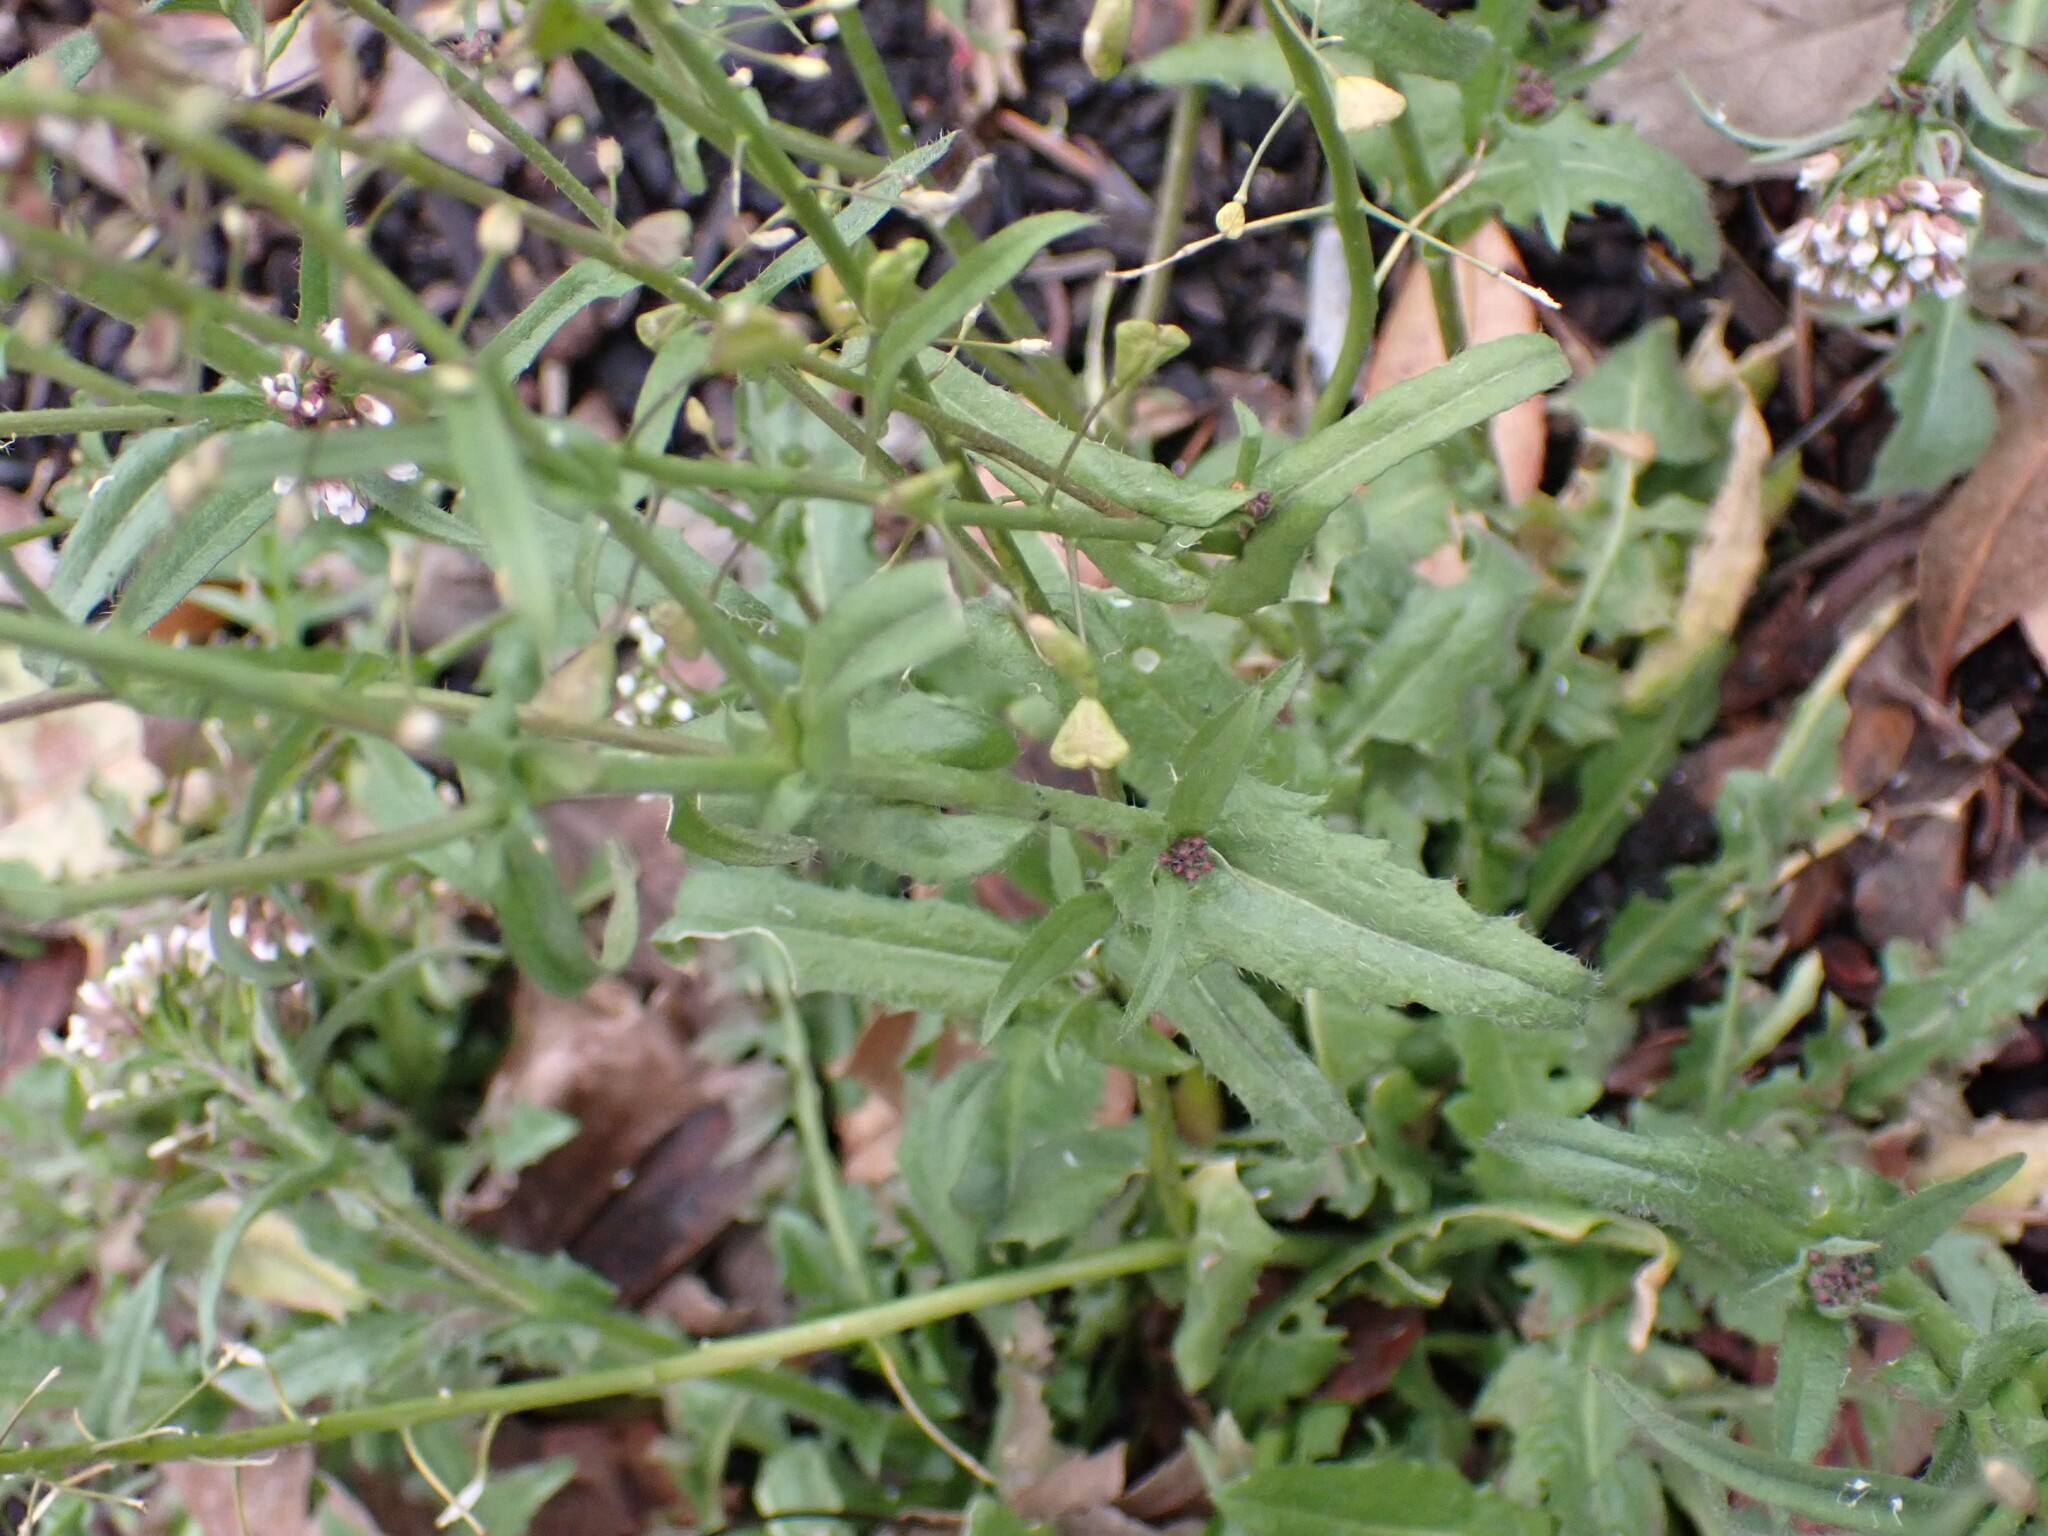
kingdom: Plantae
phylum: Tracheophyta
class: Magnoliopsida
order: Brassicales
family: Brassicaceae
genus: Capsella
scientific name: Capsella bursa-pastoris
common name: Shepherd's purse
